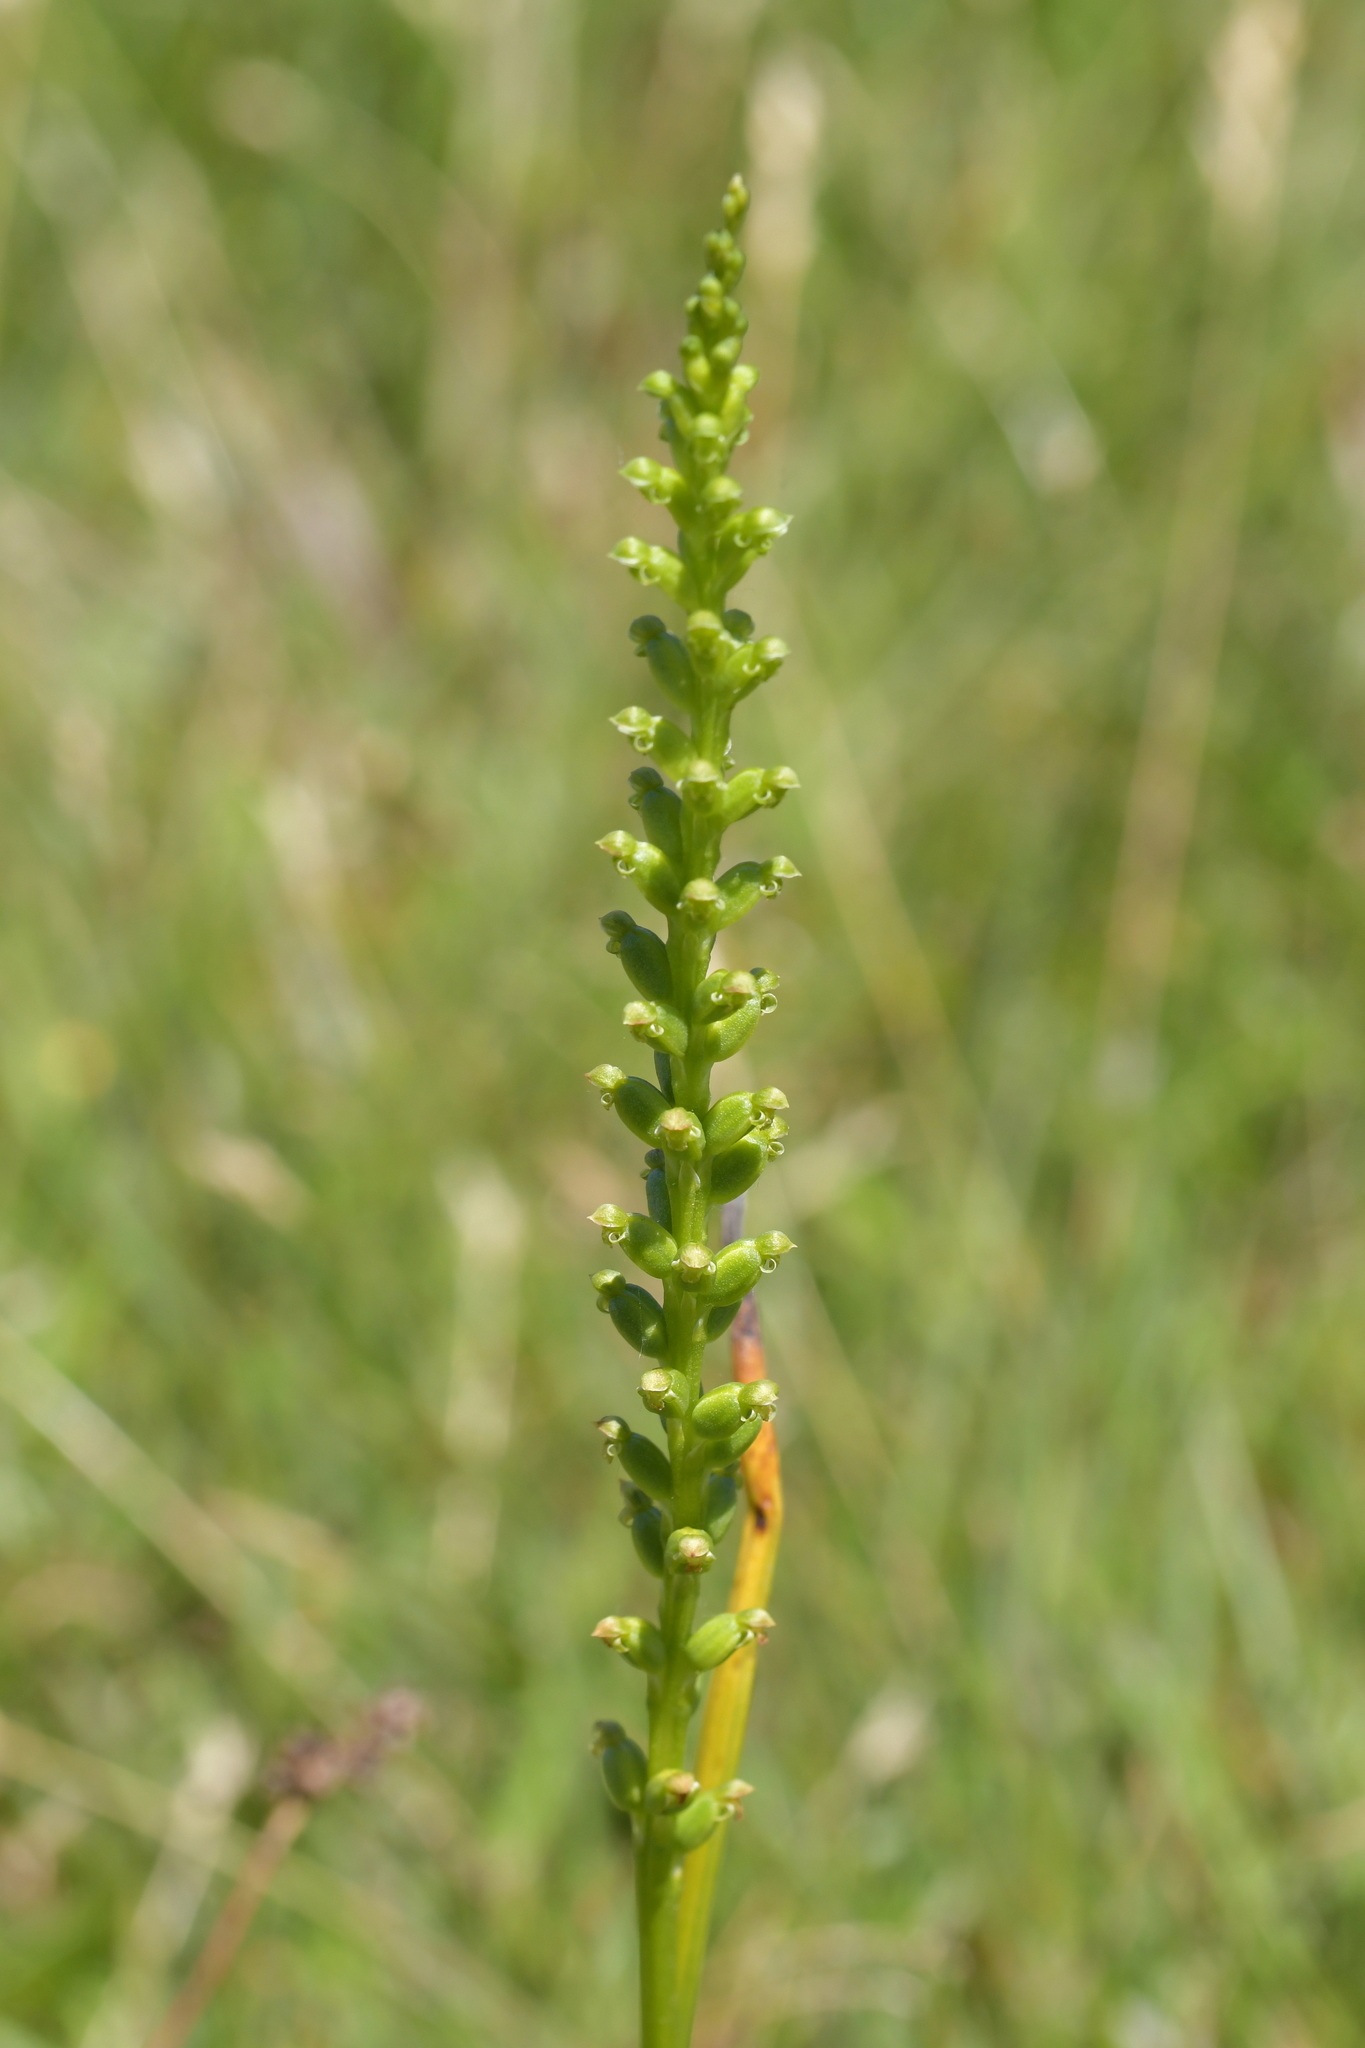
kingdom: Plantae
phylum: Tracheophyta
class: Liliopsida
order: Asparagales
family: Orchidaceae
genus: Microtis
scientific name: Microtis unifolia
